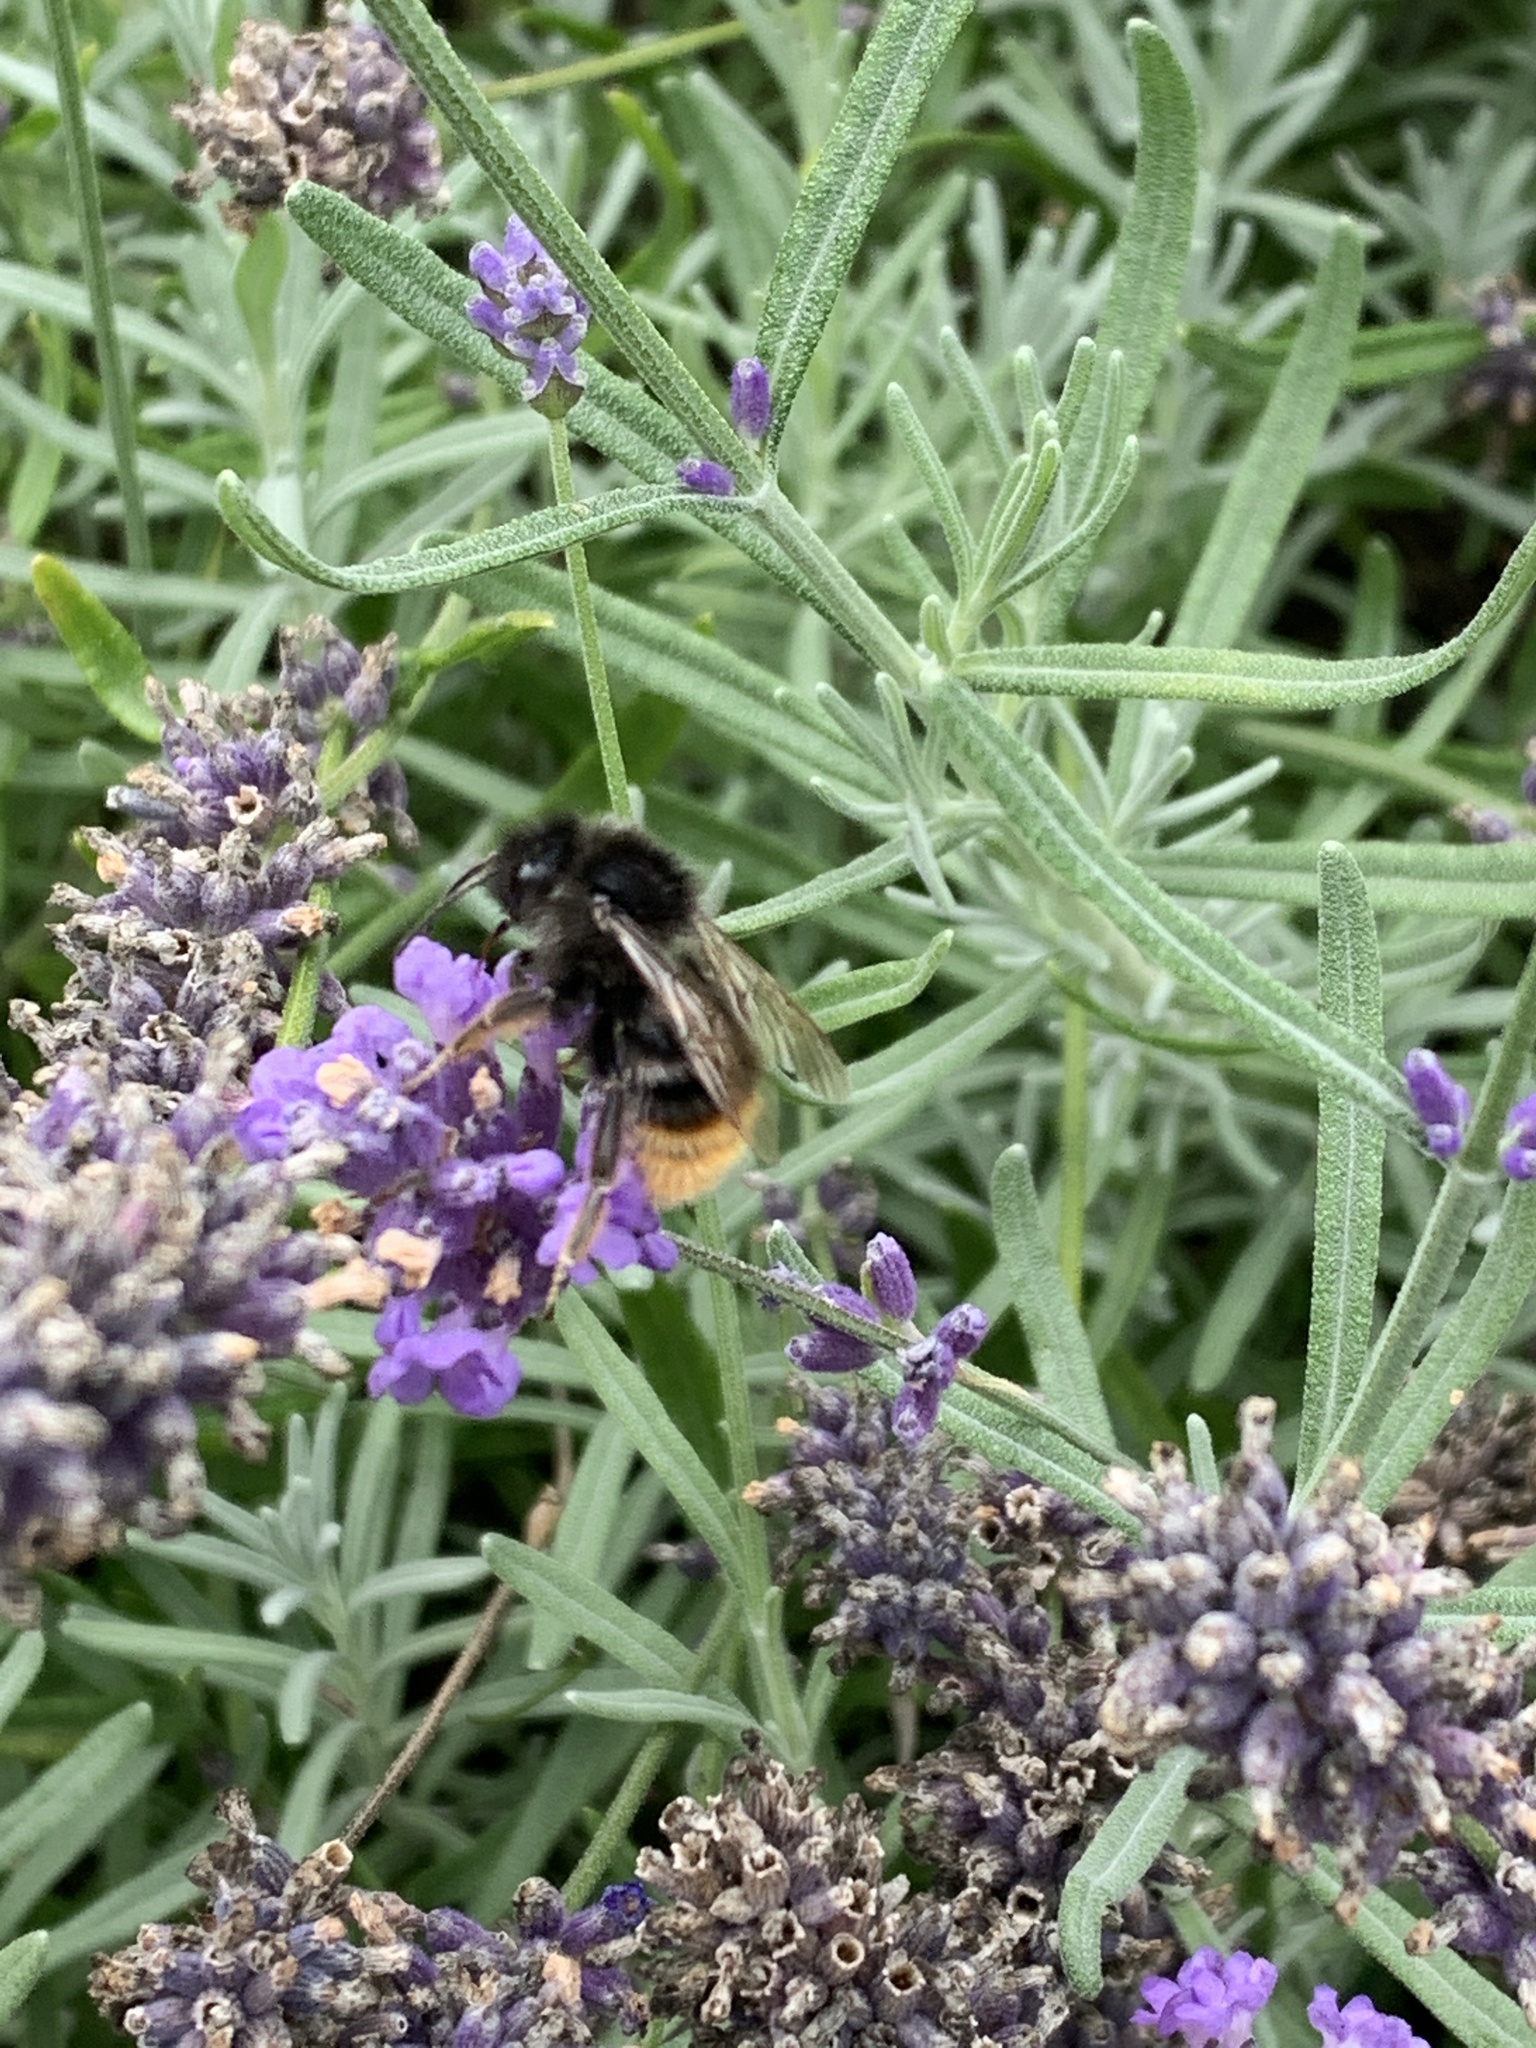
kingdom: Animalia
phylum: Arthropoda
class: Insecta
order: Hymenoptera
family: Apidae
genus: Bombus
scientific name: Bombus rupestris
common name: Hill cuckoo-bee
